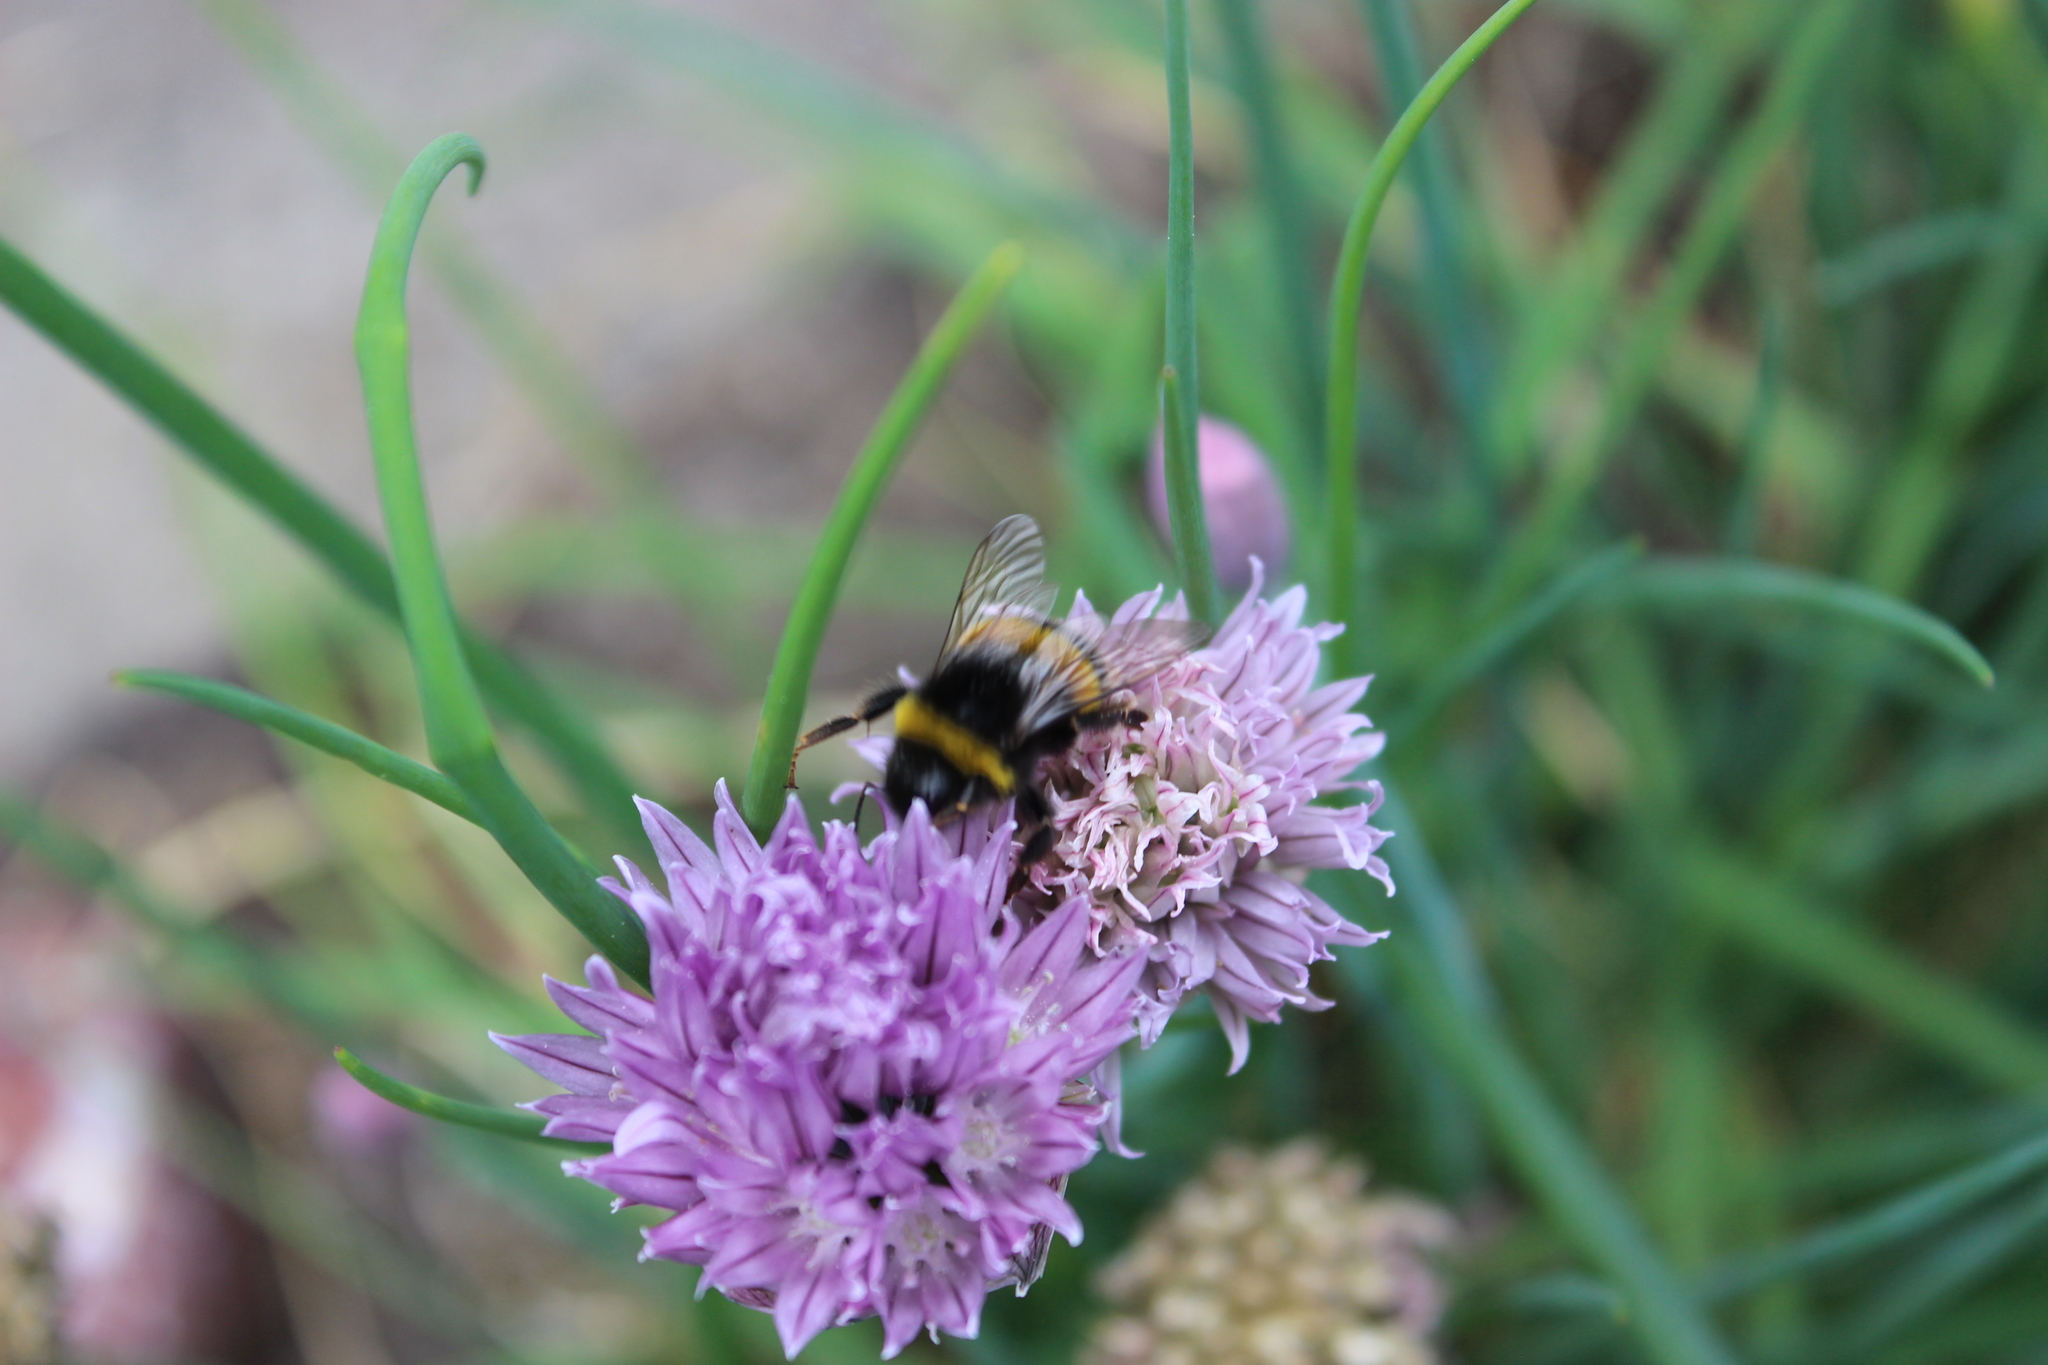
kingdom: Animalia
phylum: Arthropoda
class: Insecta
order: Hymenoptera
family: Apidae
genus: Bombus
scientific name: Bombus terrestris
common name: Buff-tailed bumblebee
